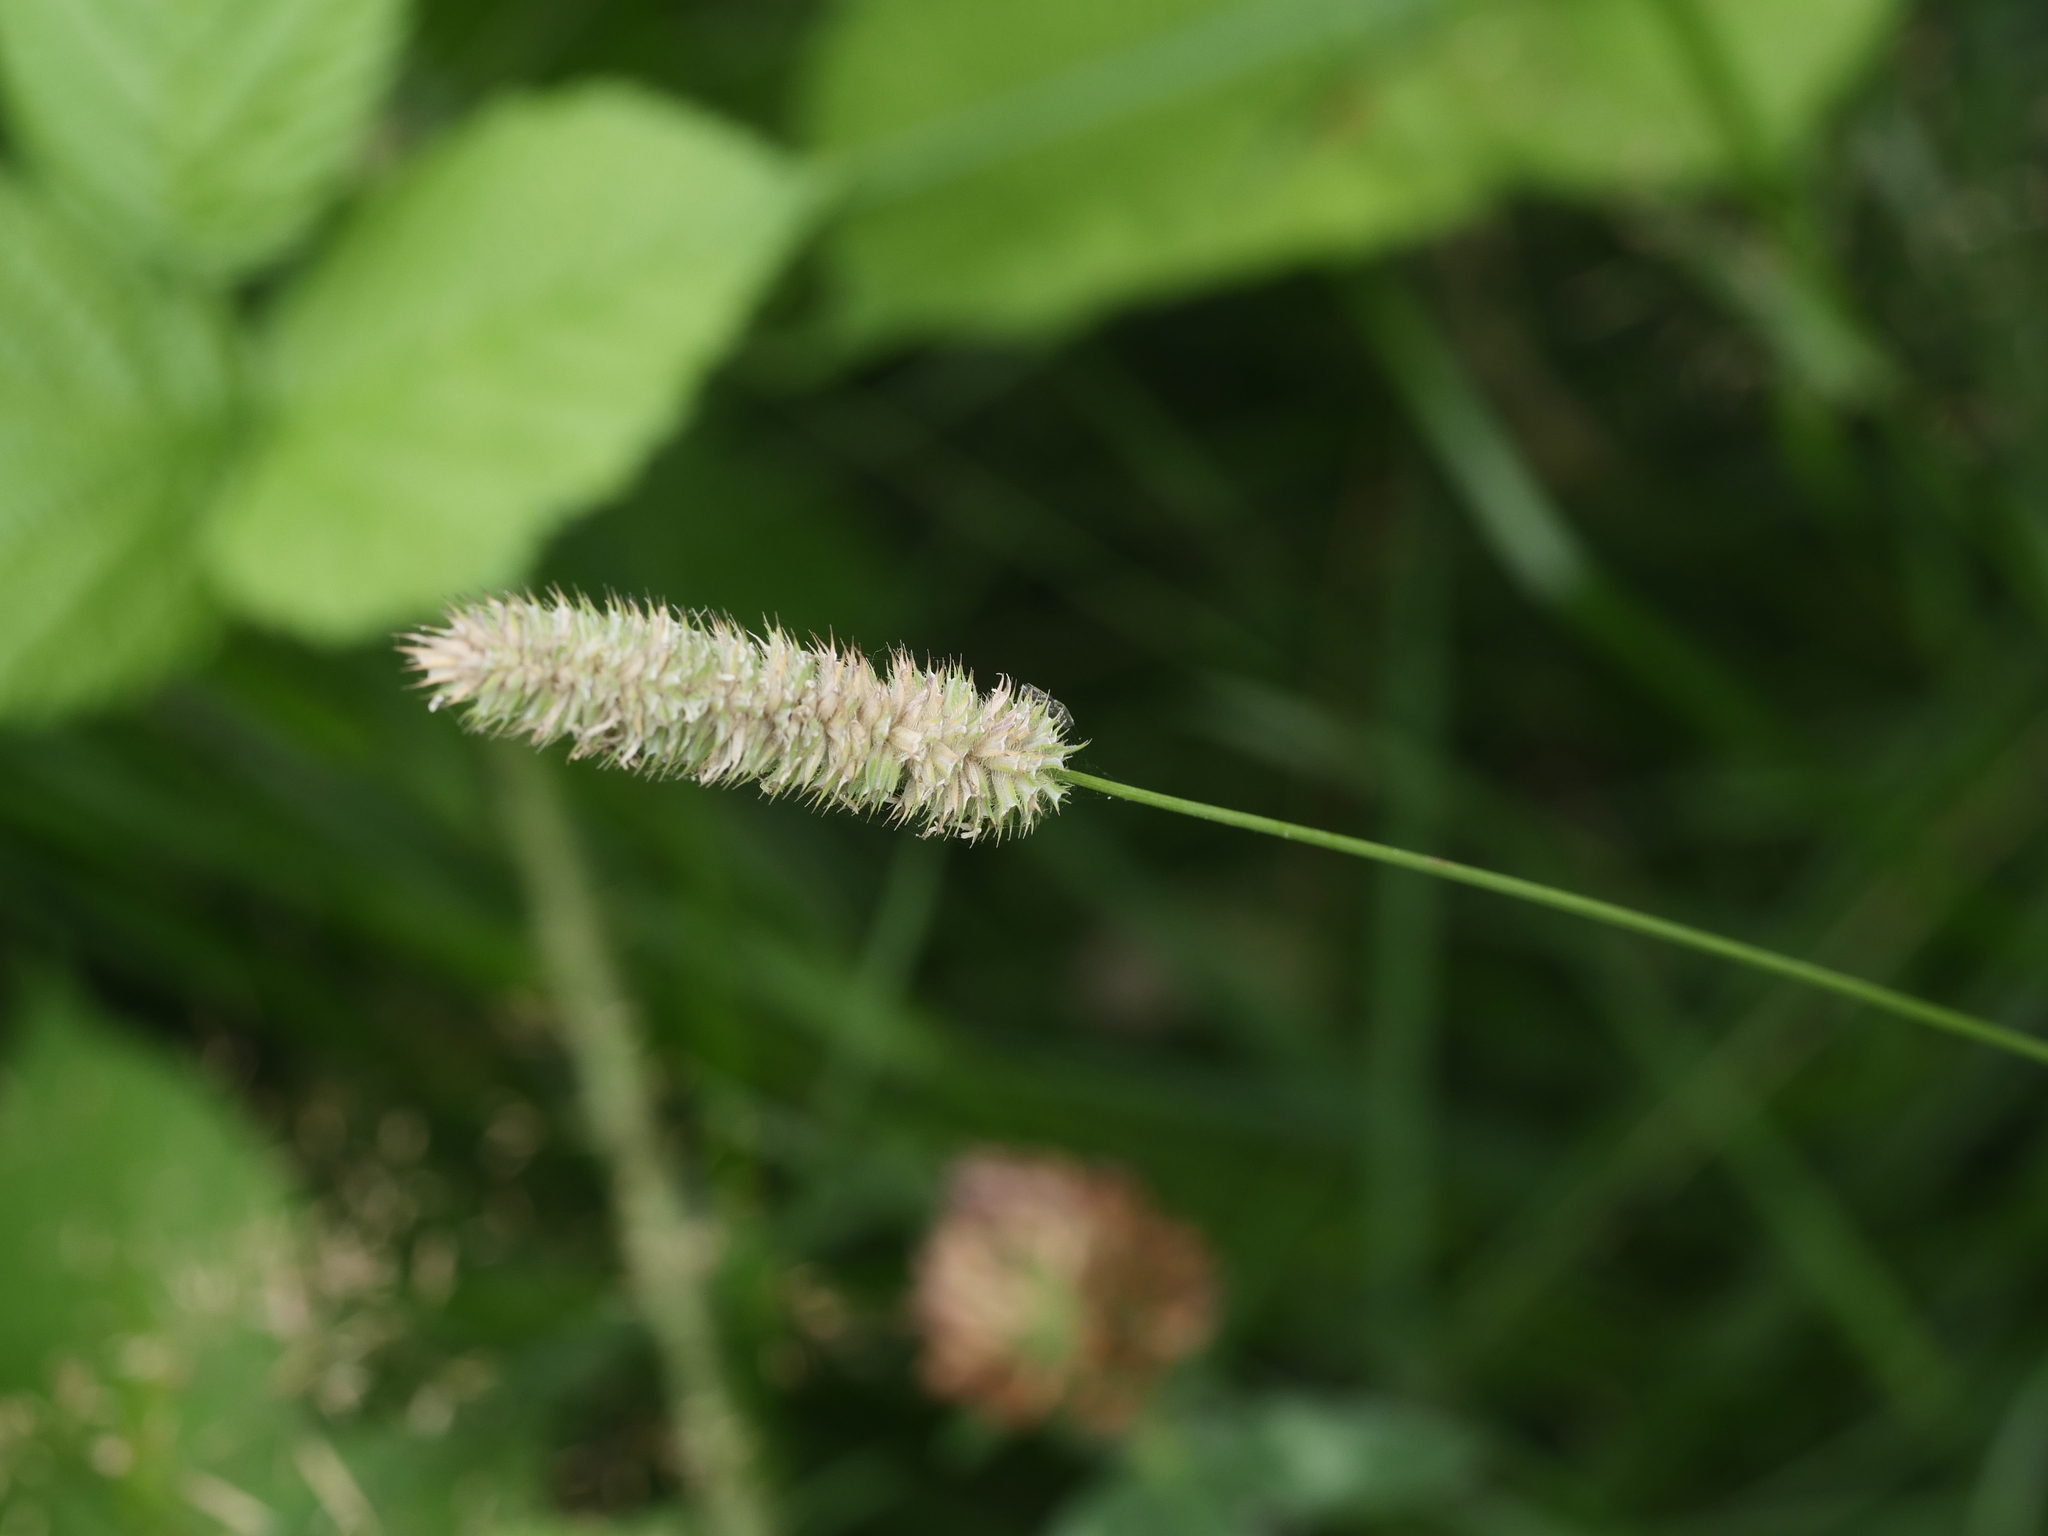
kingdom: Plantae
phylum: Tracheophyta
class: Liliopsida
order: Poales
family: Poaceae
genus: Phleum
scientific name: Phleum pratense
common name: Timothy grass
